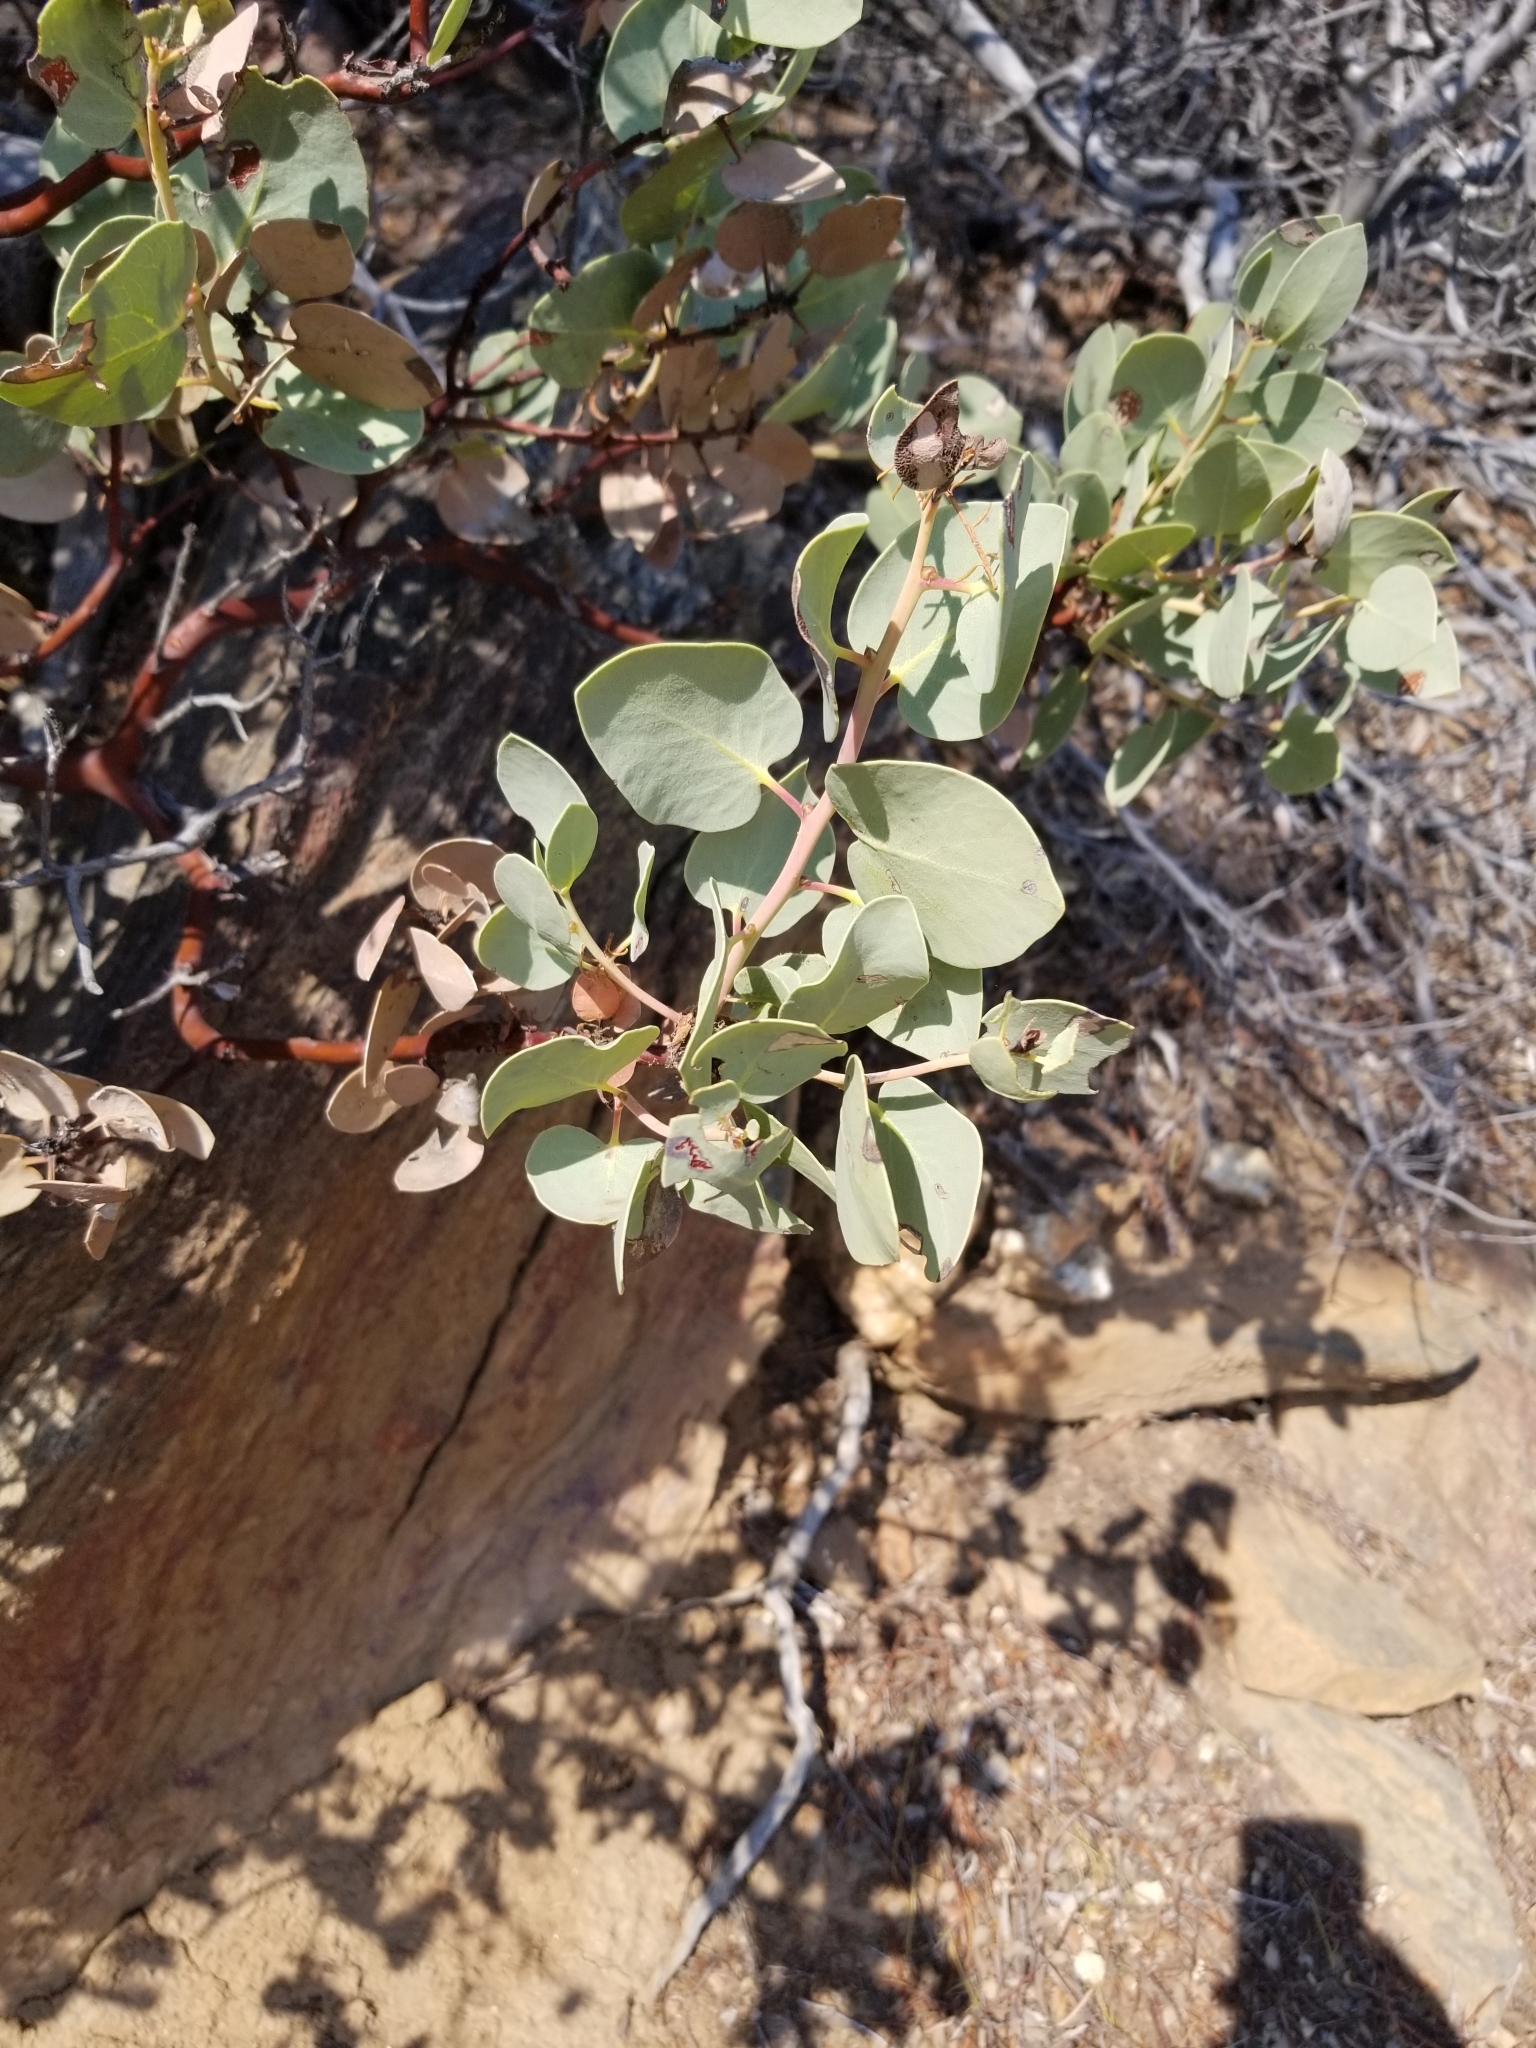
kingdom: Plantae
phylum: Tracheophyta
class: Magnoliopsida
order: Ericales
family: Ericaceae
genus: Arctostaphylos
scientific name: Arctostaphylos glauca
